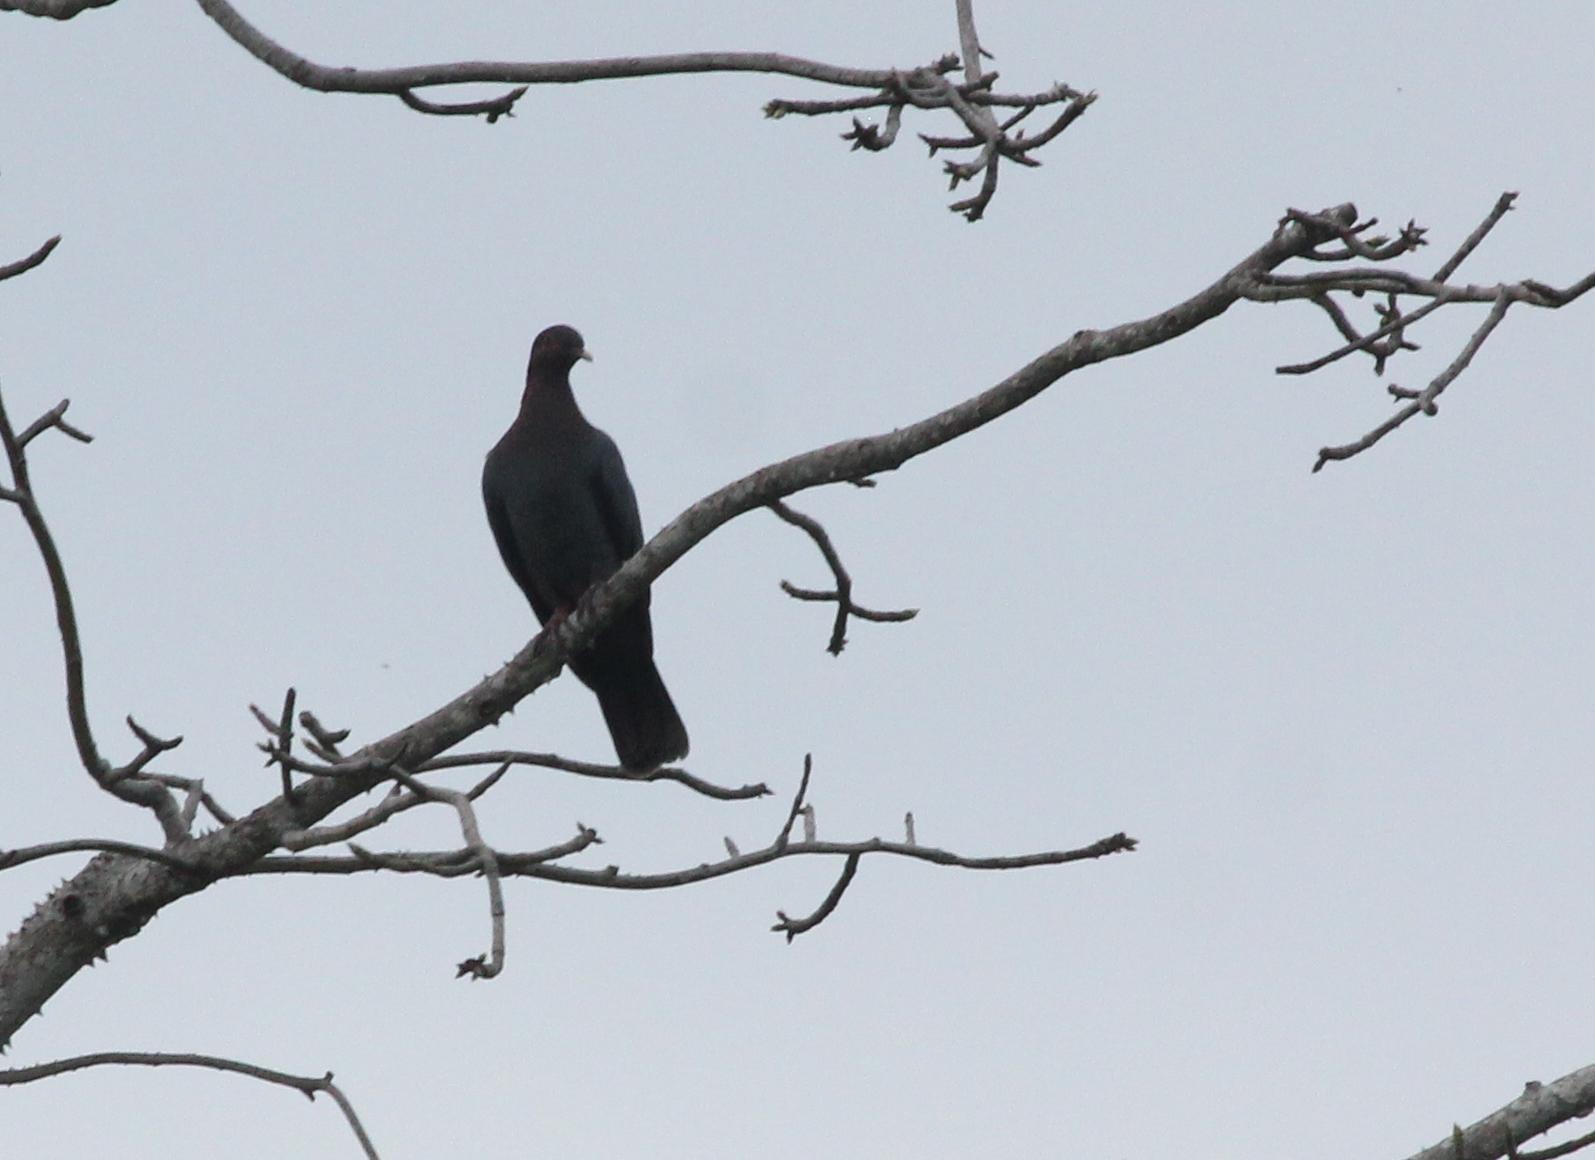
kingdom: Animalia
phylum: Chordata
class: Aves
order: Columbiformes
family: Columbidae
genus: Patagioenas
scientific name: Patagioenas squamosa
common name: Scaly-naped pigeon
